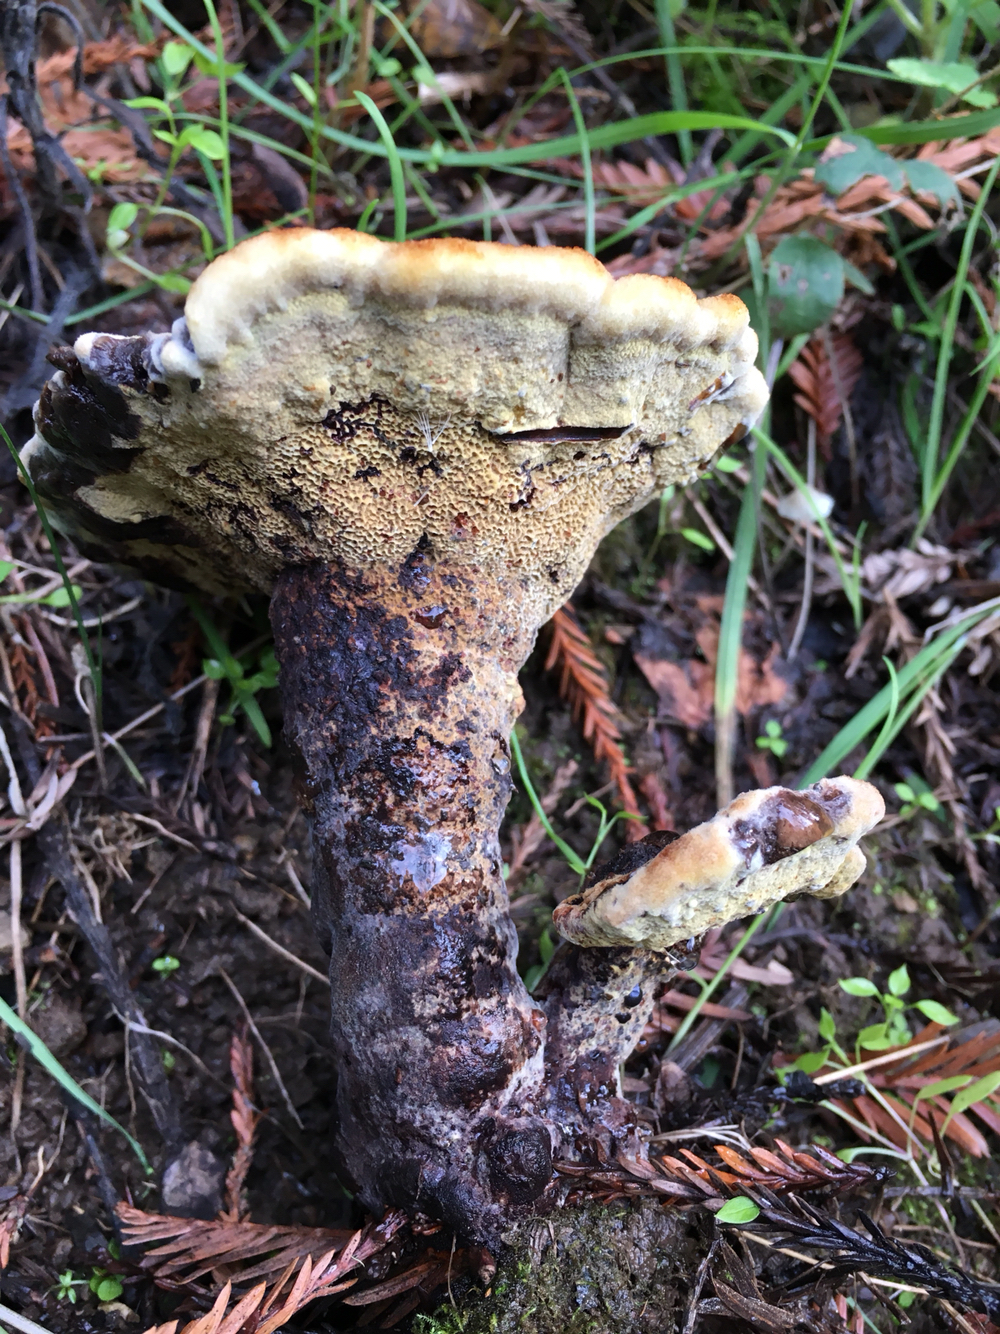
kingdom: Fungi
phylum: Basidiomycota
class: Agaricomycetes
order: Polyporales
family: Laetiporaceae
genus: Phaeolus
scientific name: Phaeolus schweinitzii
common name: Dyer's mazegill
